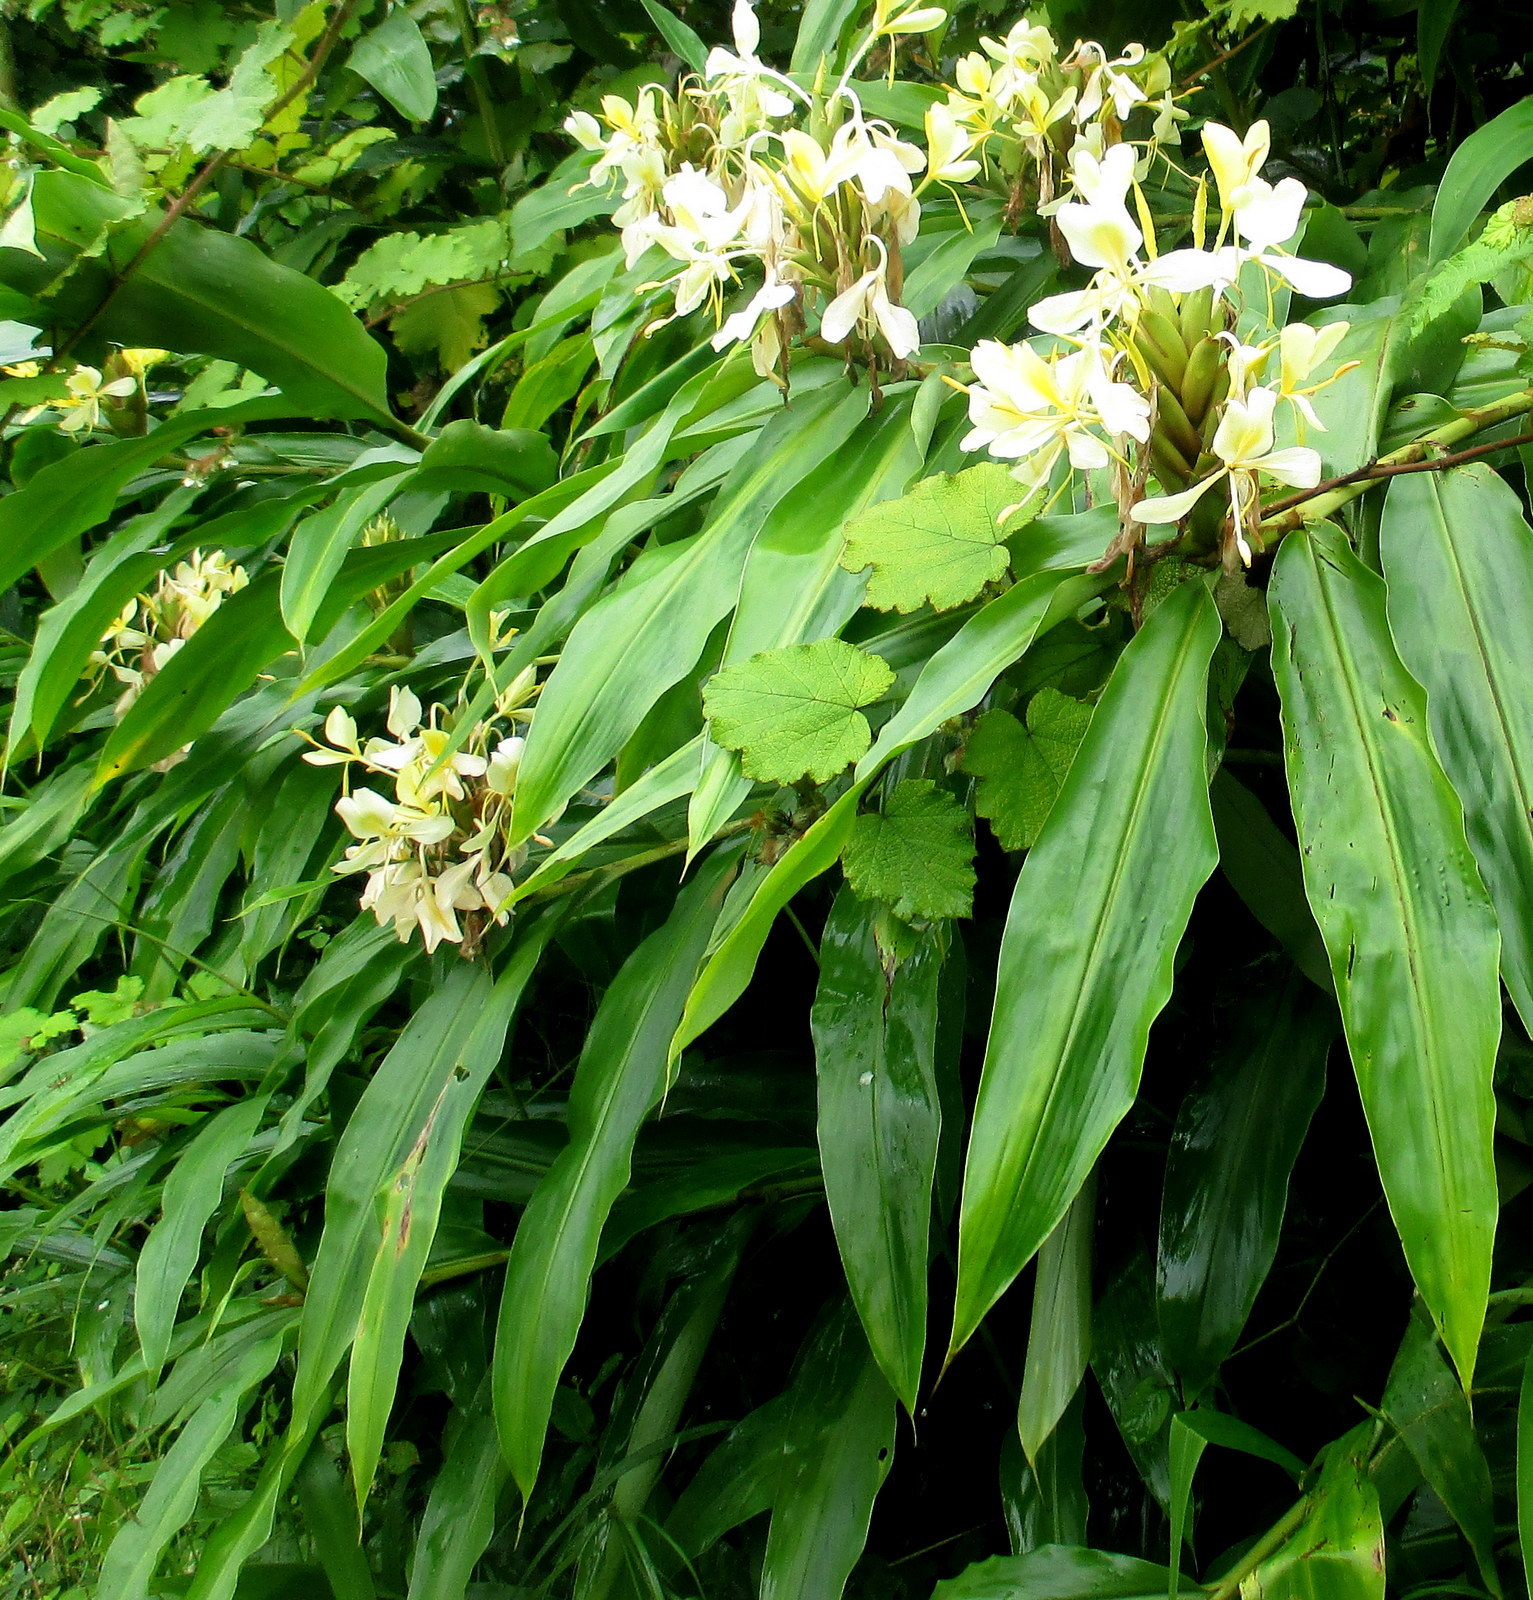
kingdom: Plantae
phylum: Tracheophyta
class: Liliopsida
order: Zingiberales
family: Zingiberaceae
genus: Hedychium
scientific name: Hedychium coronarium
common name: White garland-lily
